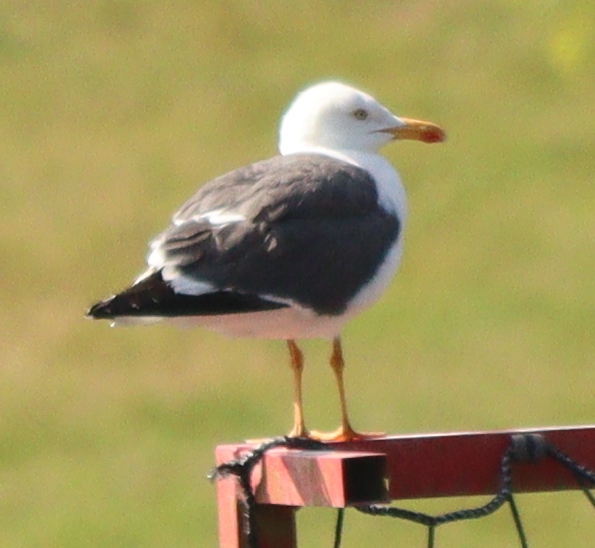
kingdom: Animalia
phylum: Chordata
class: Aves
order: Charadriiformes
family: Laridae
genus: Larus
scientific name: Larus fuscus
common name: Lesser black-backed gull
